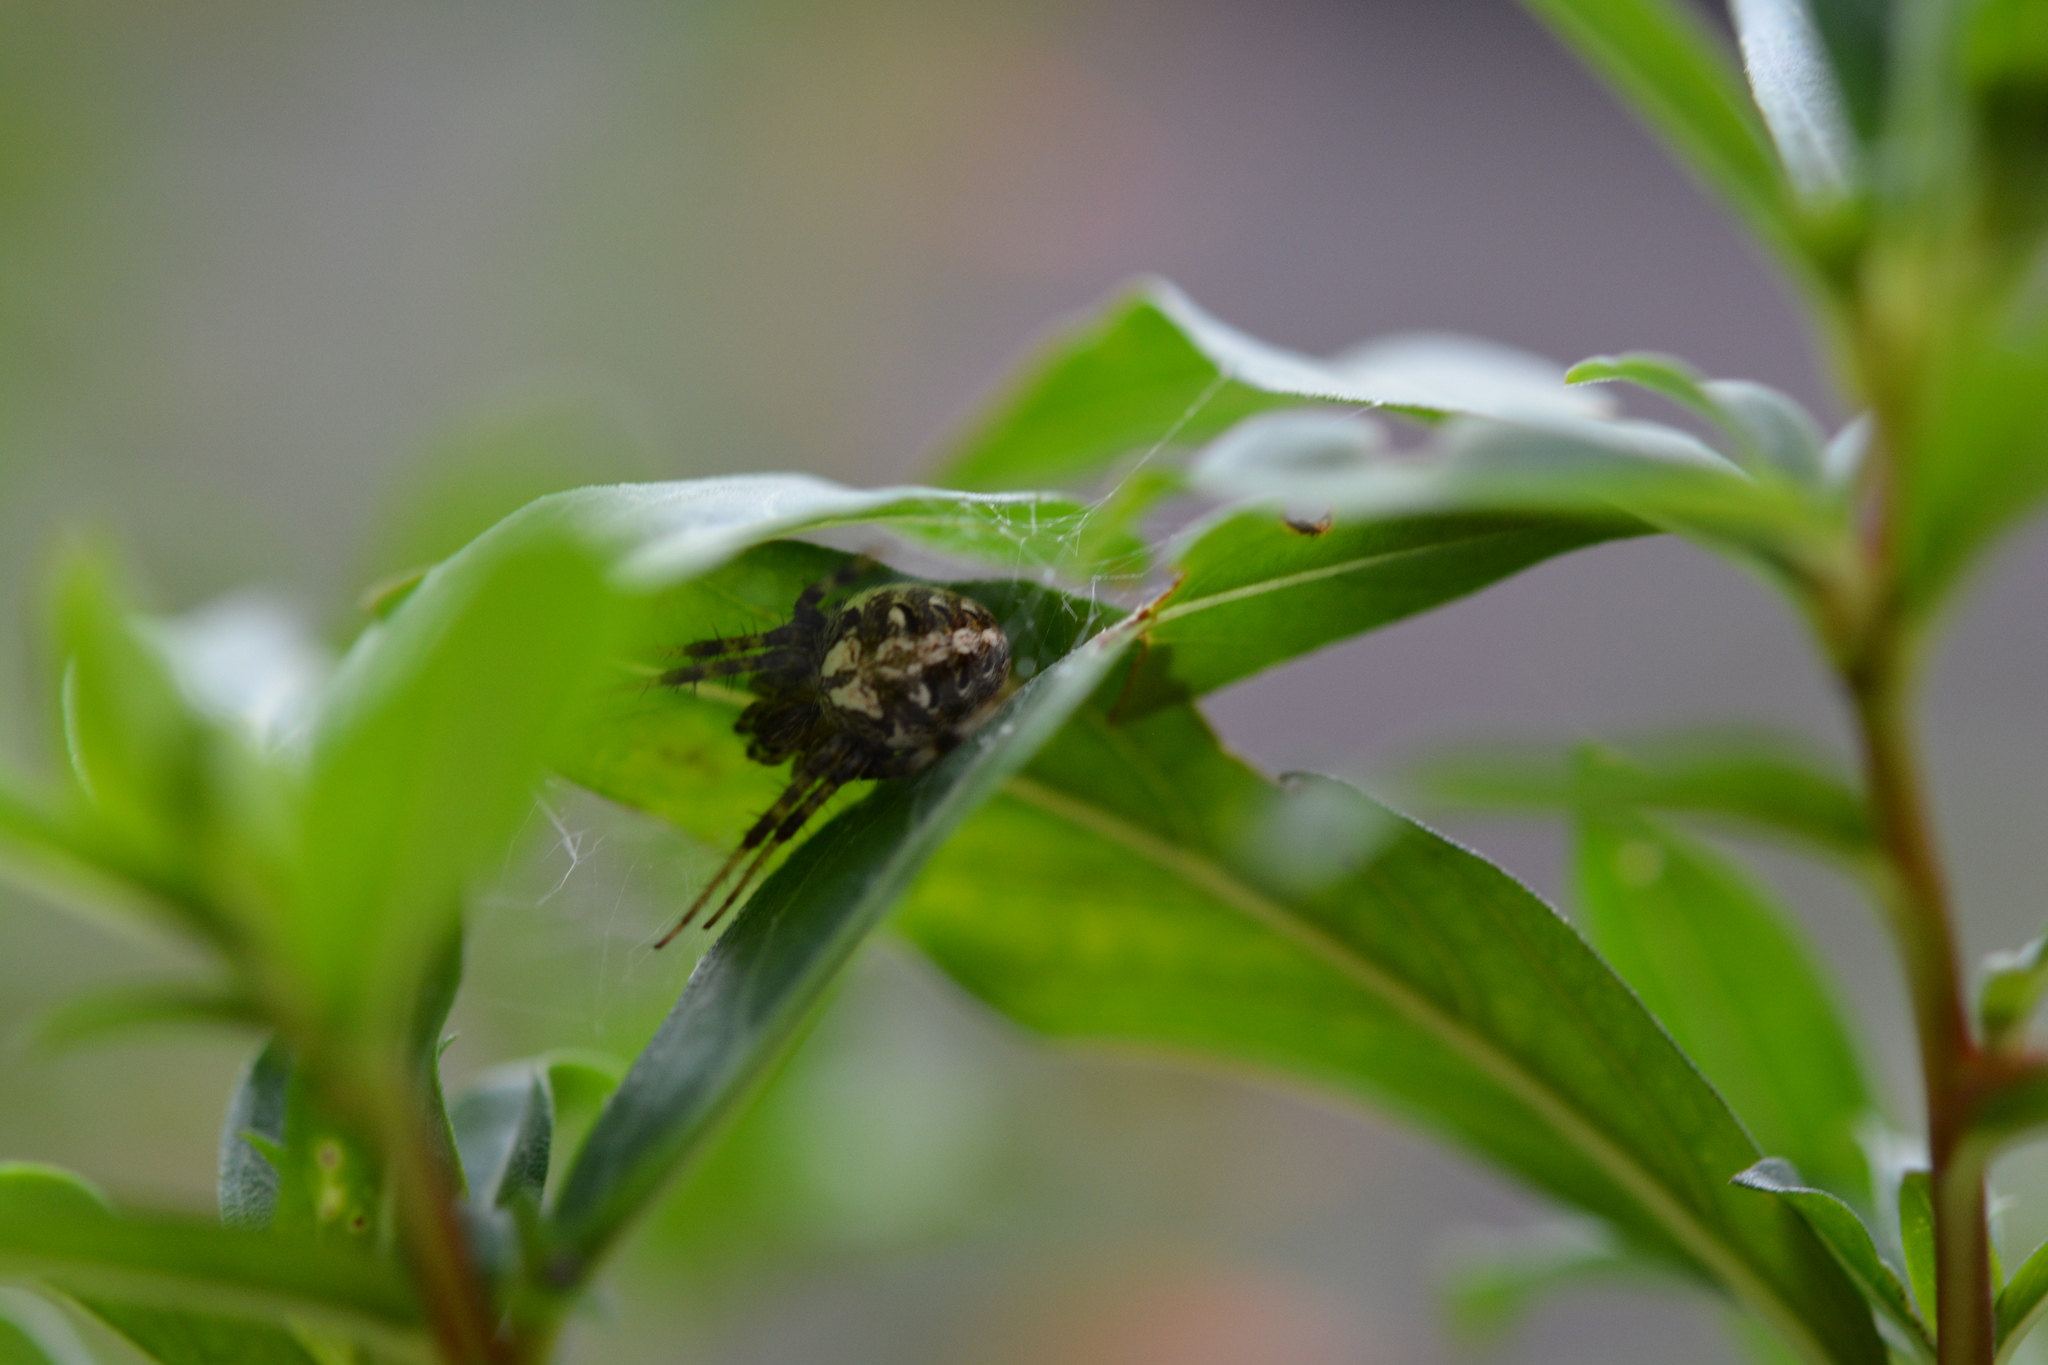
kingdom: Animalia
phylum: Arthropoda
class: Arachnida
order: Araneae
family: Araneidae
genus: Neoscona
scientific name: Neoscona arabesca
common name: Orb weavers
